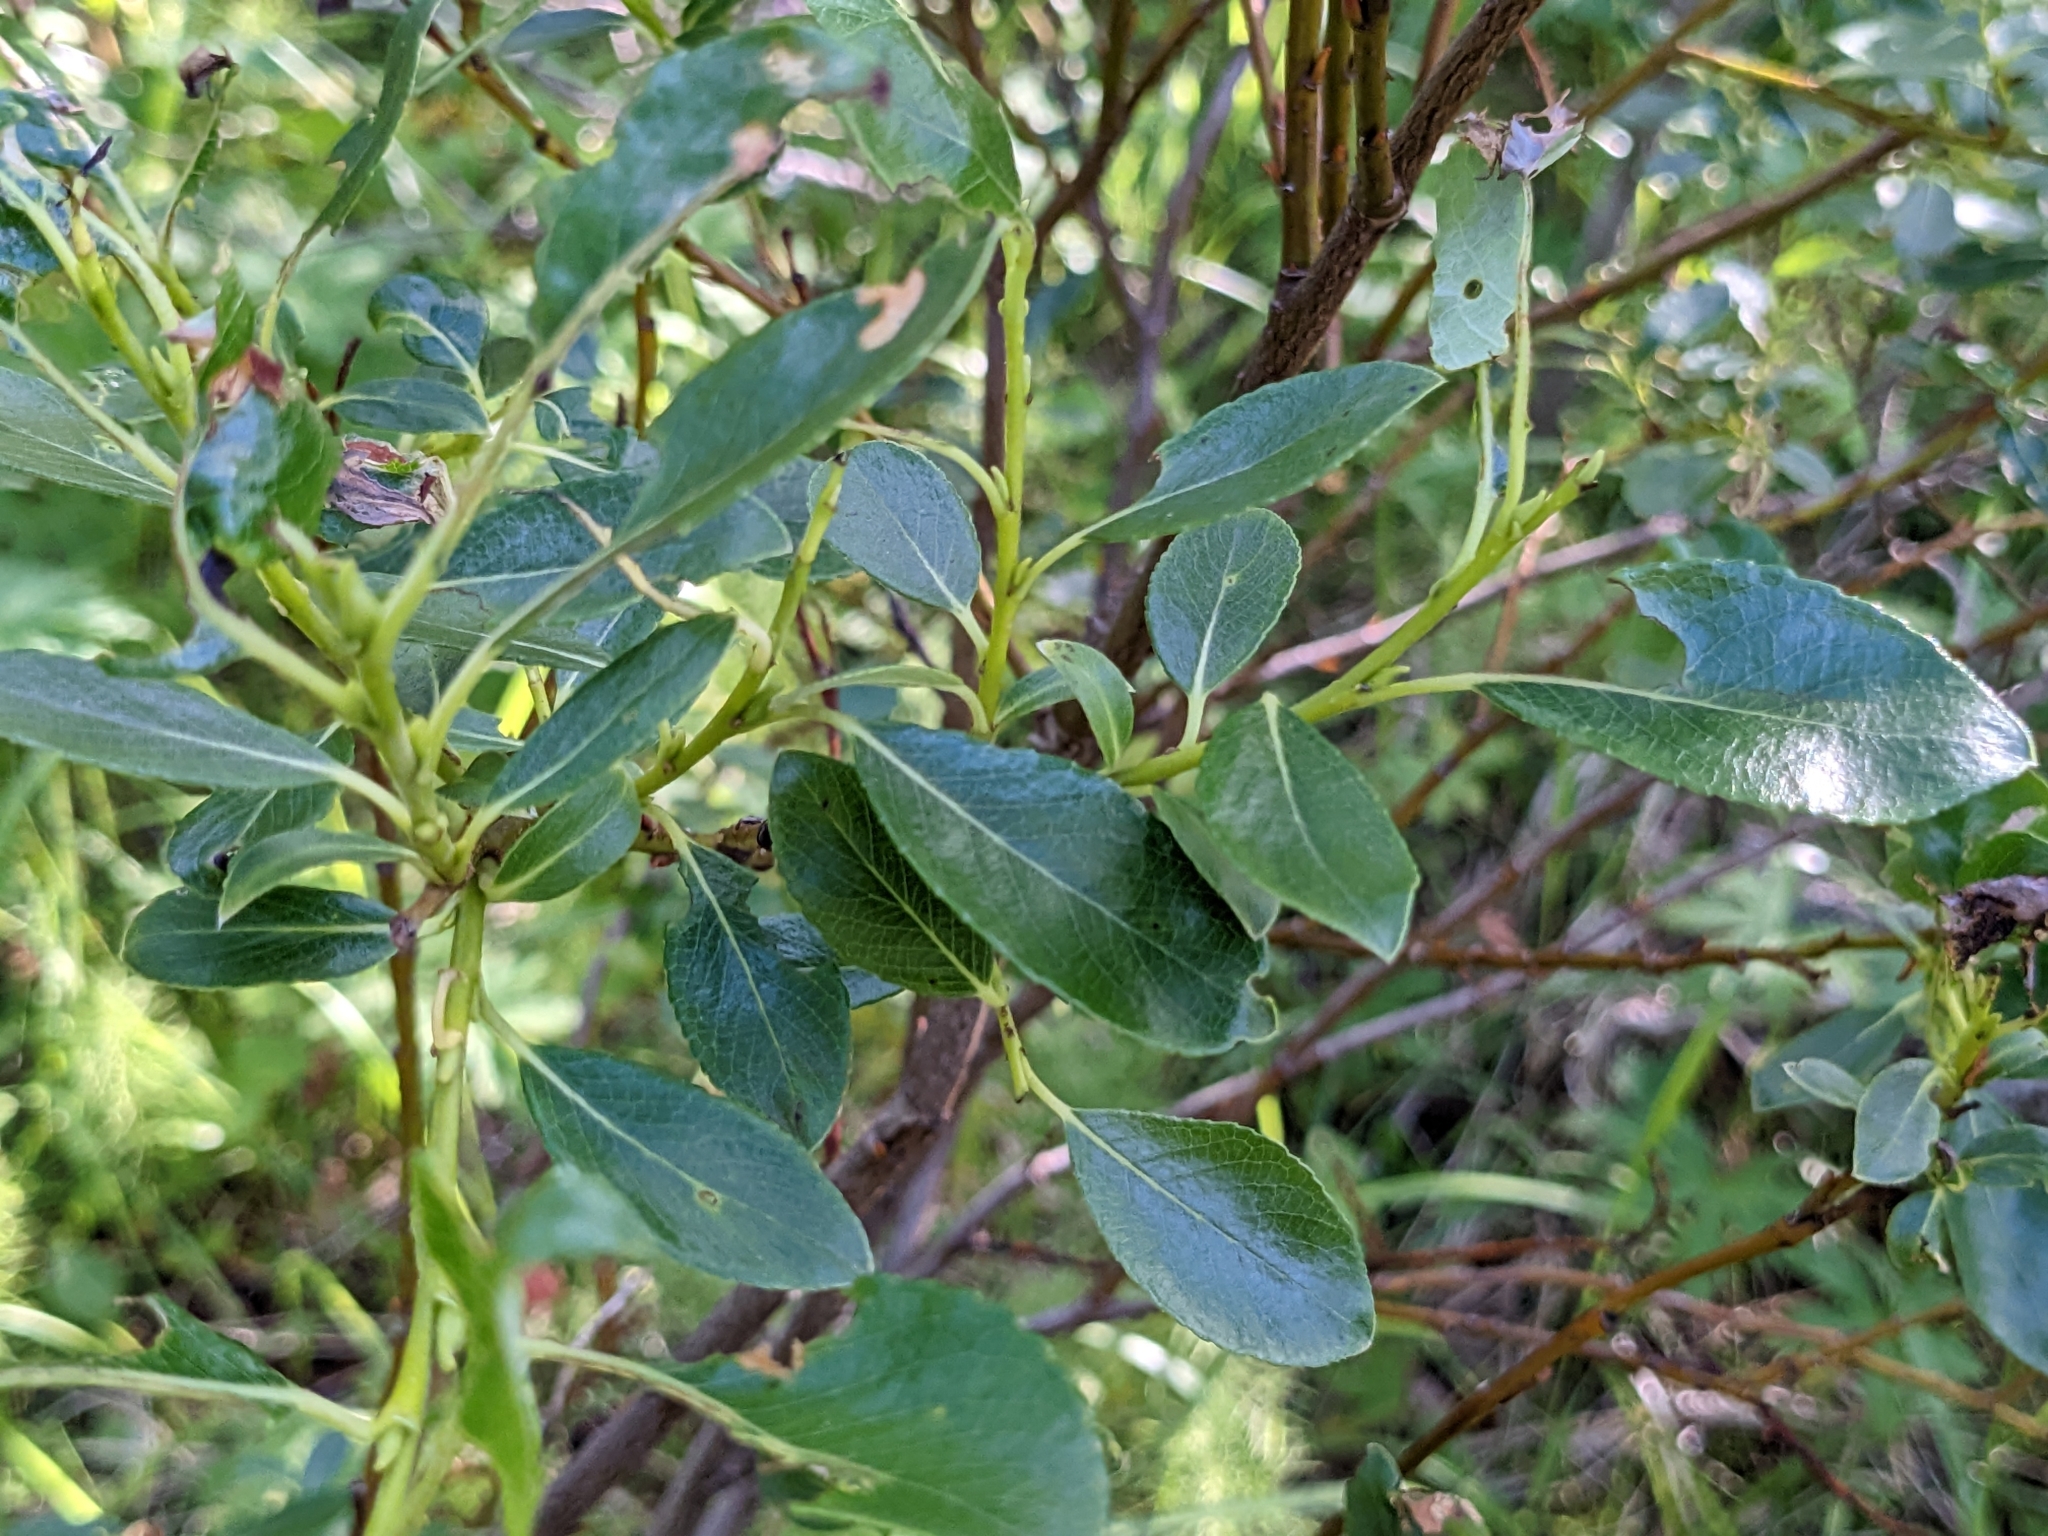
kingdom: Plantae
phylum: Tracheophyta
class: Magnoliopsida
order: Malpighiales
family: Salicaceae
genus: Salix
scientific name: Salix phylicifolia
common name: Tea-leaved willow
